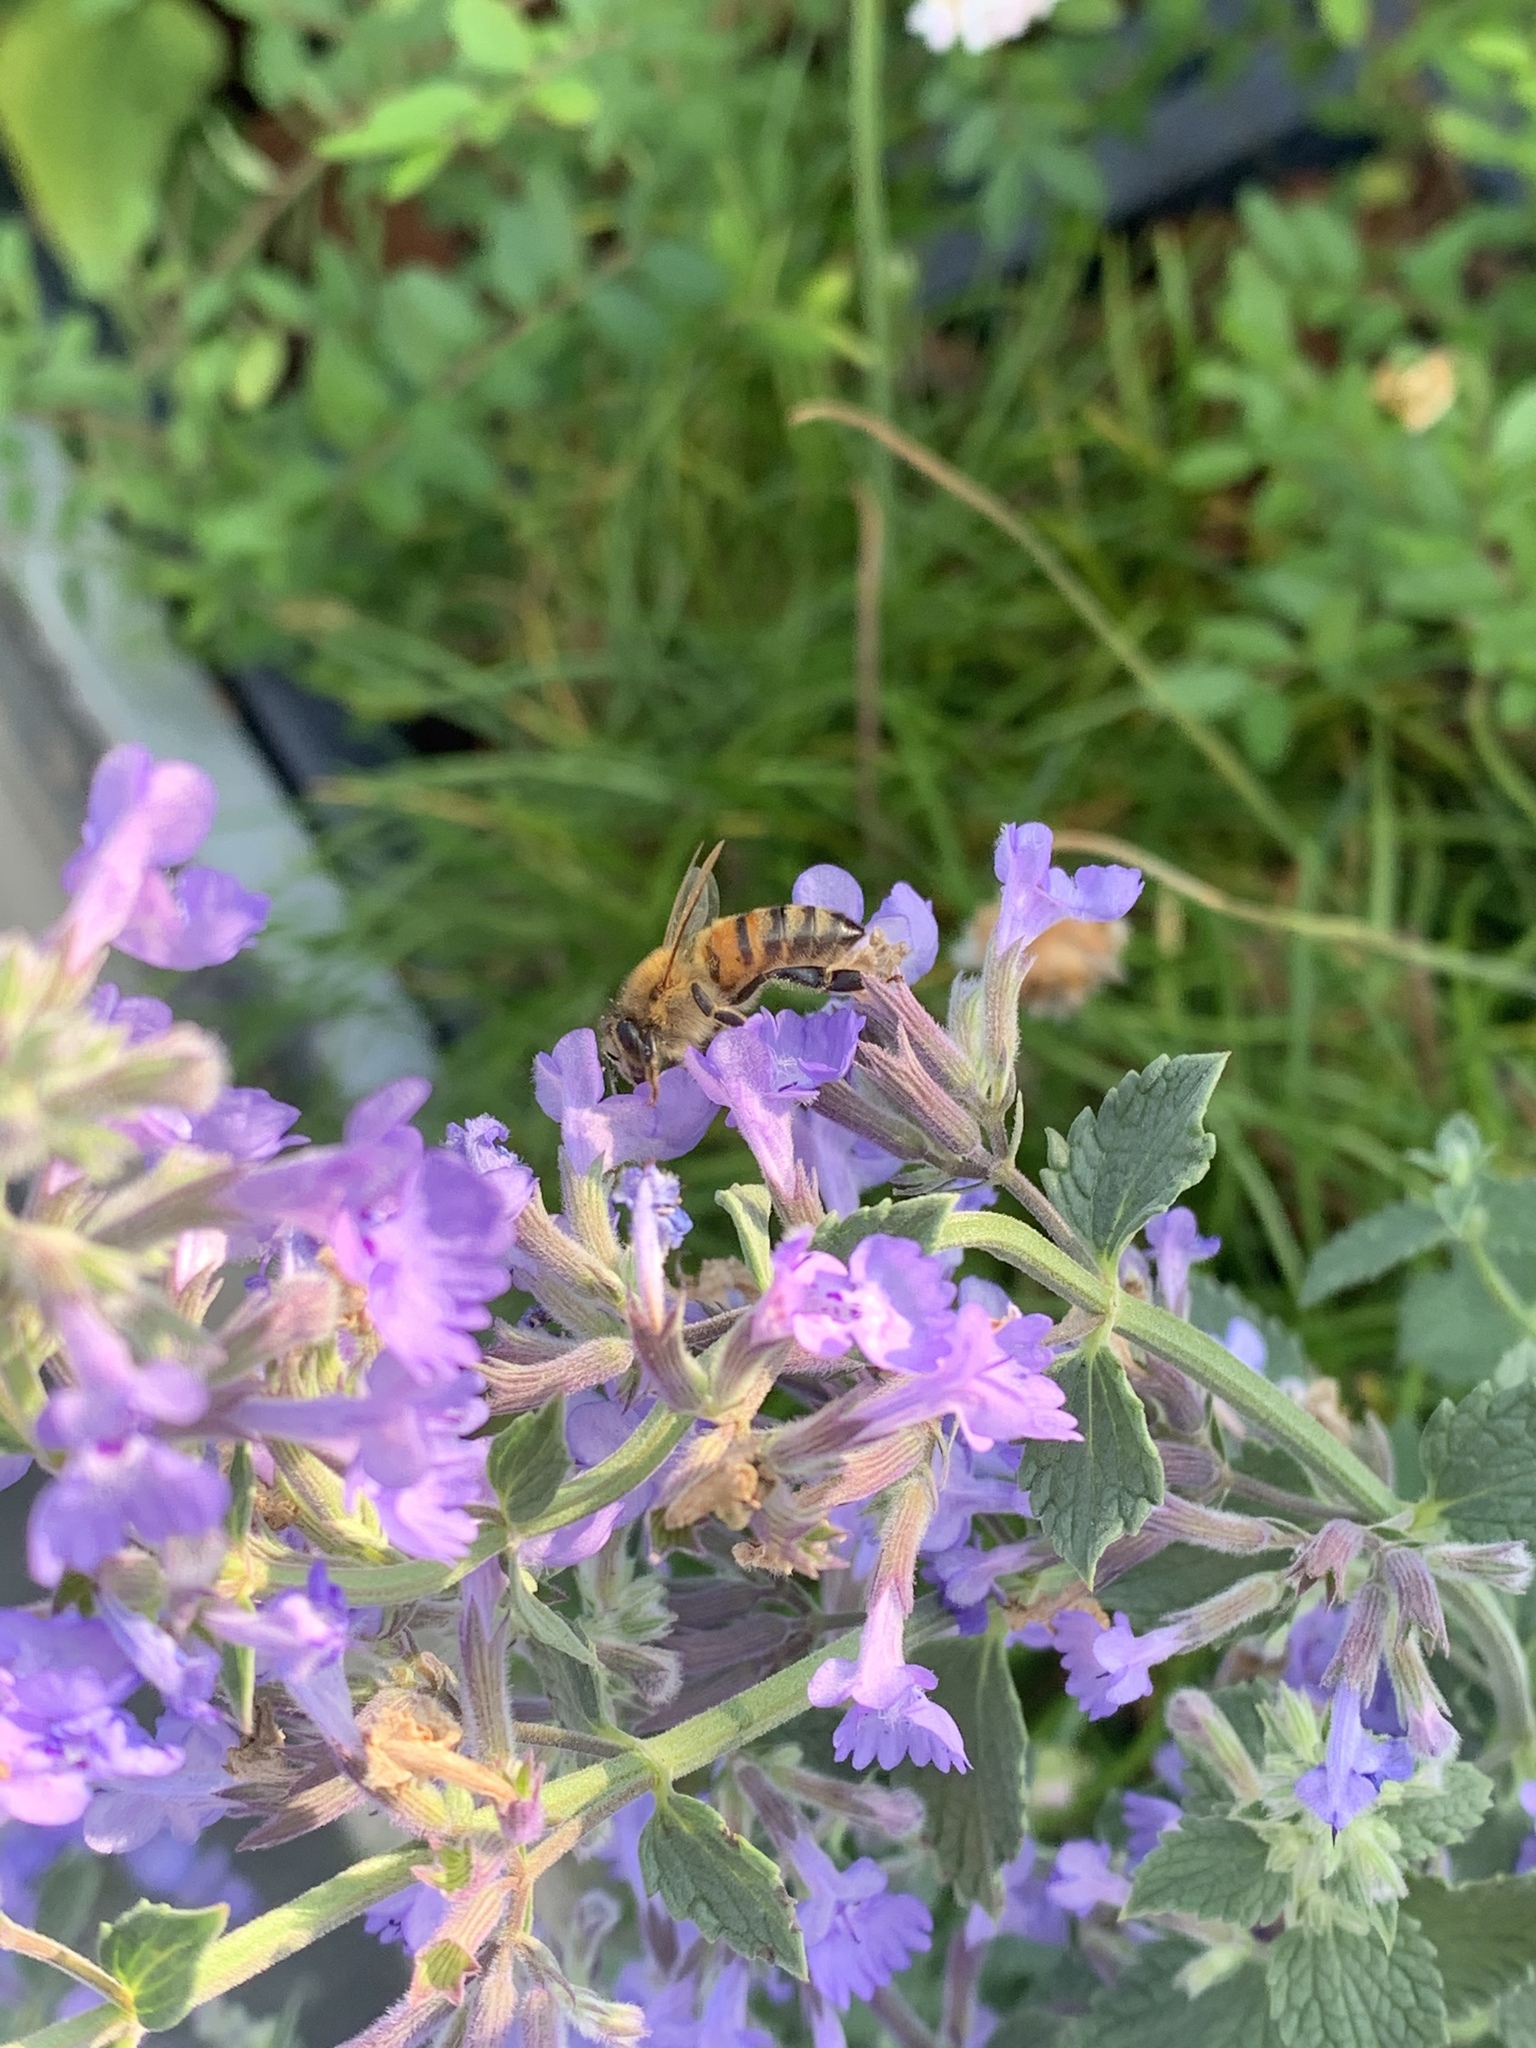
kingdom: Animalia
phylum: Arthropoda
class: Insecta
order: Hymenoptera
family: Apidae
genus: Apis
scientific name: Apis mellifera
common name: Honey bee
